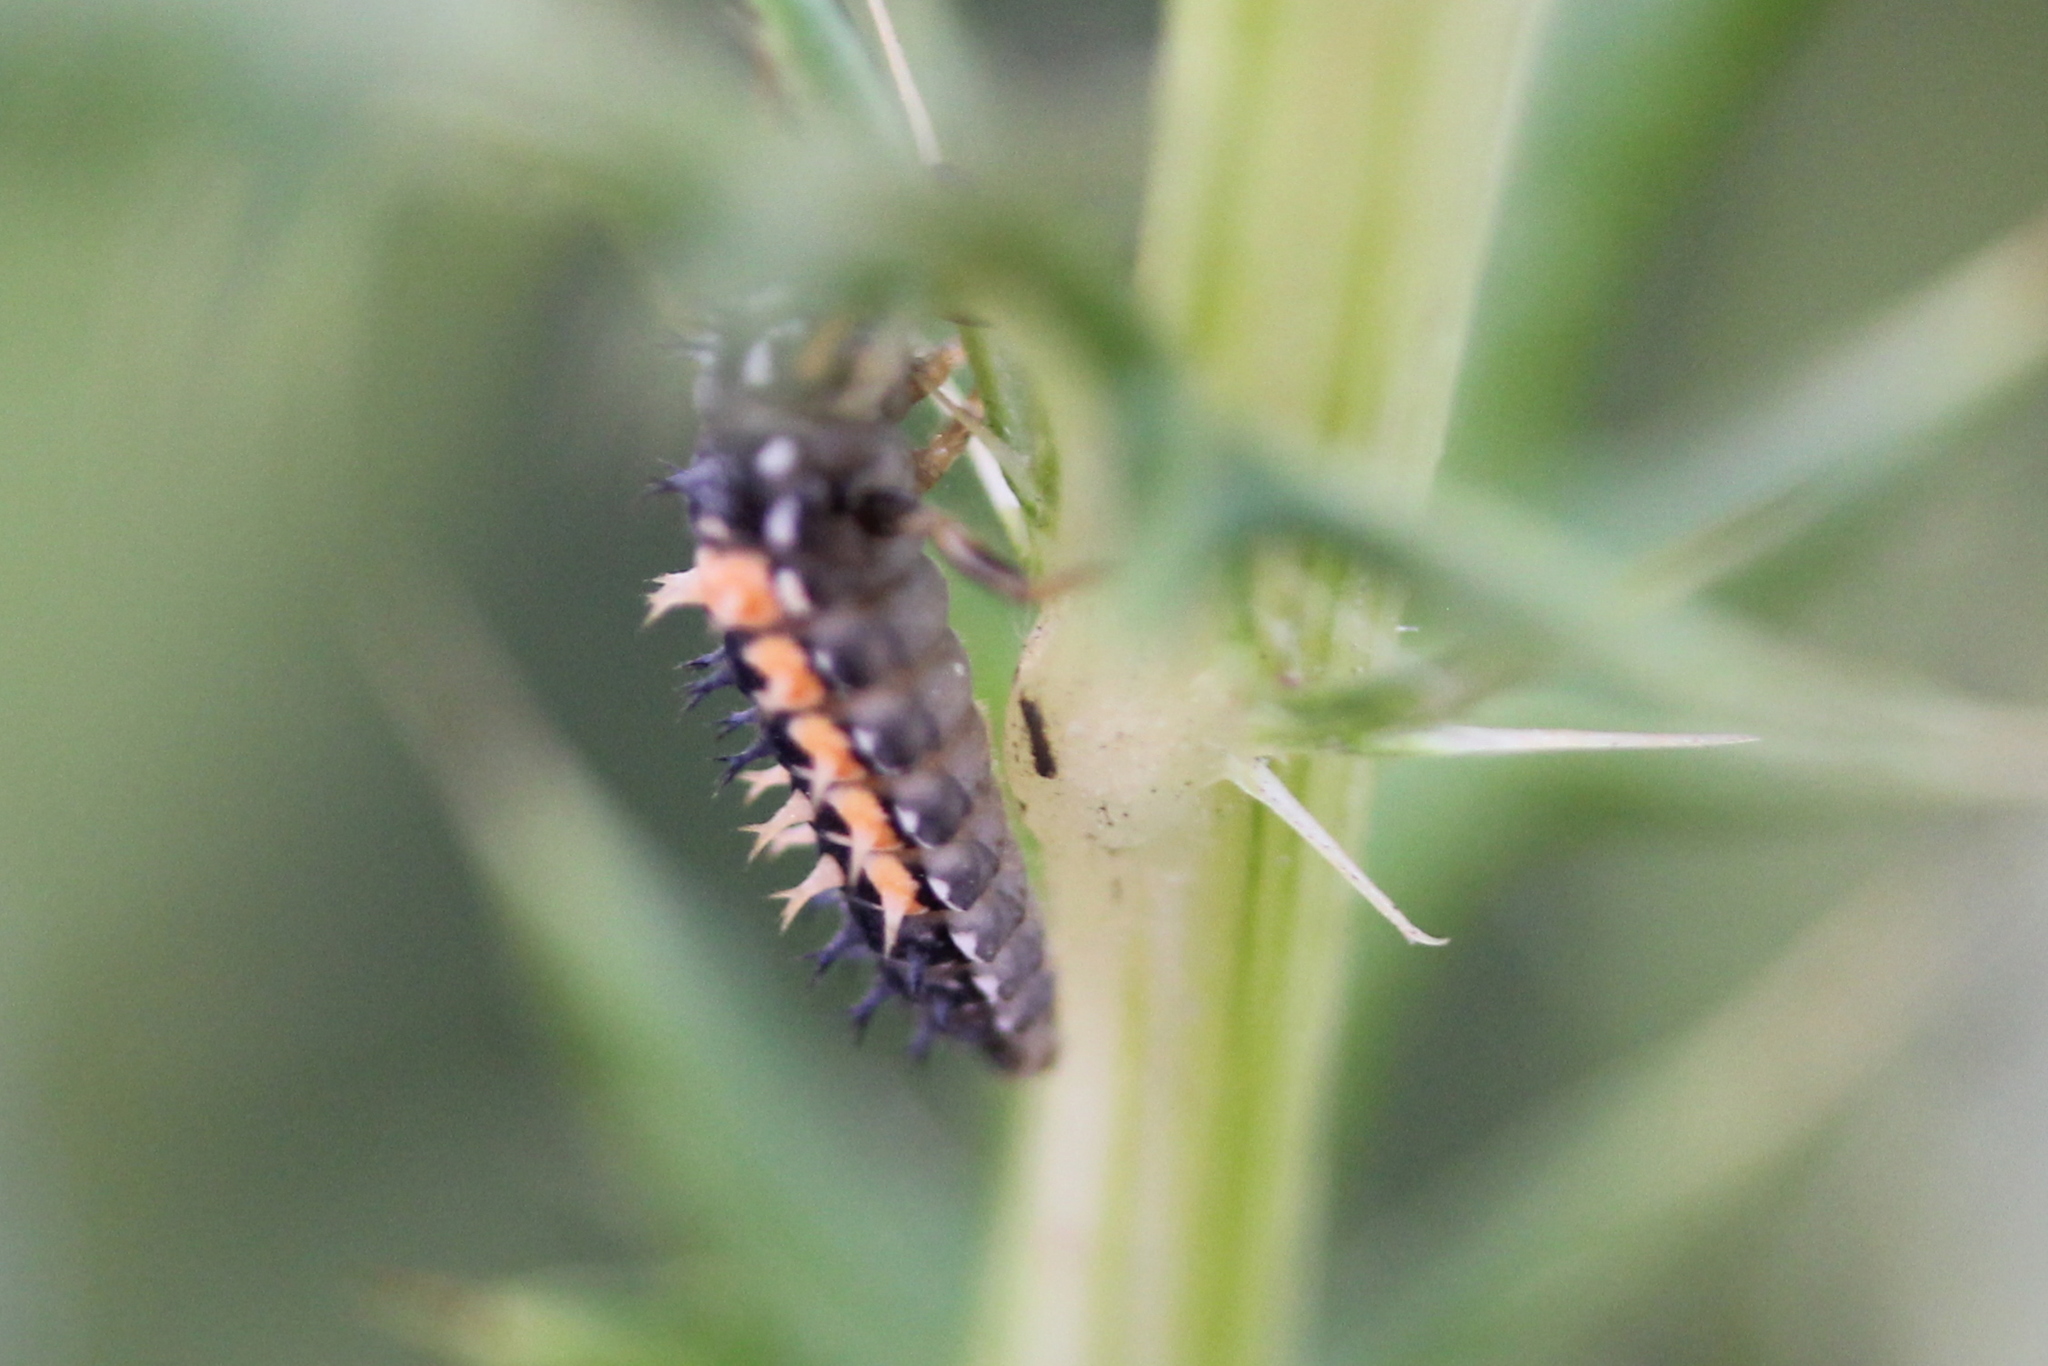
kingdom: Animalia
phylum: Arthropoda
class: Insecta
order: Coleoptera
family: Coccinellidae
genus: Harmonia
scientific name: Harmonia axyridis
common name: Harlequin ladybird
